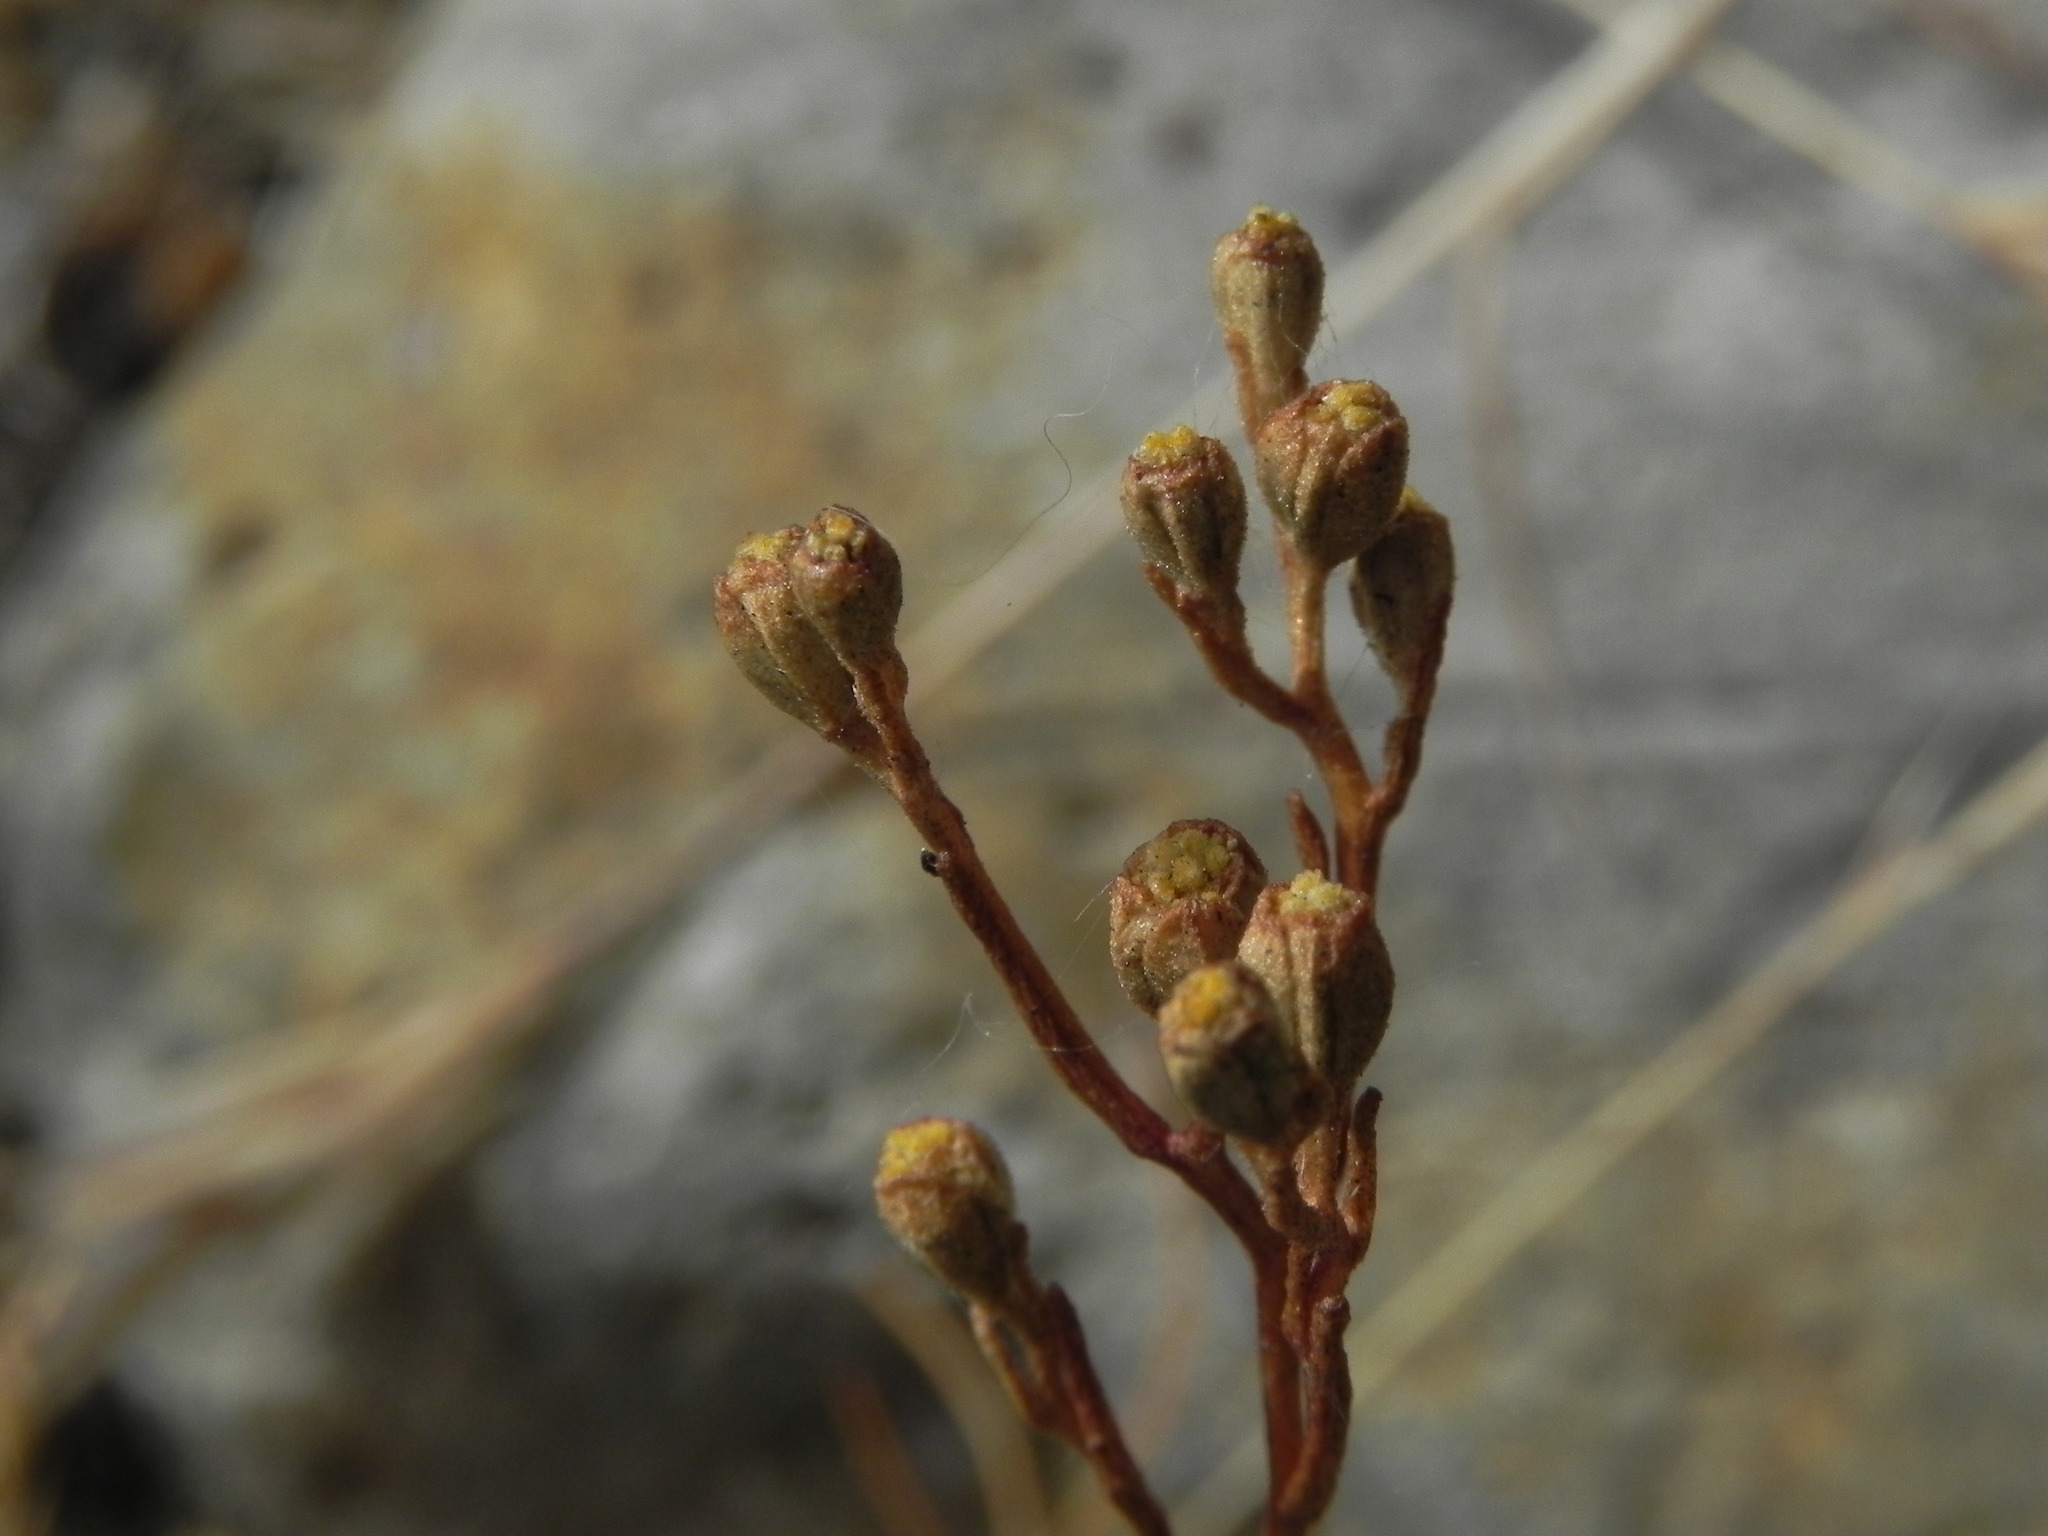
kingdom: Plantae
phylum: Tracheophyta
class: Magnoliopsida
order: Asterales
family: Asteraceae
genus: Amblyopappus
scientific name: Amblyopappus pusillus
